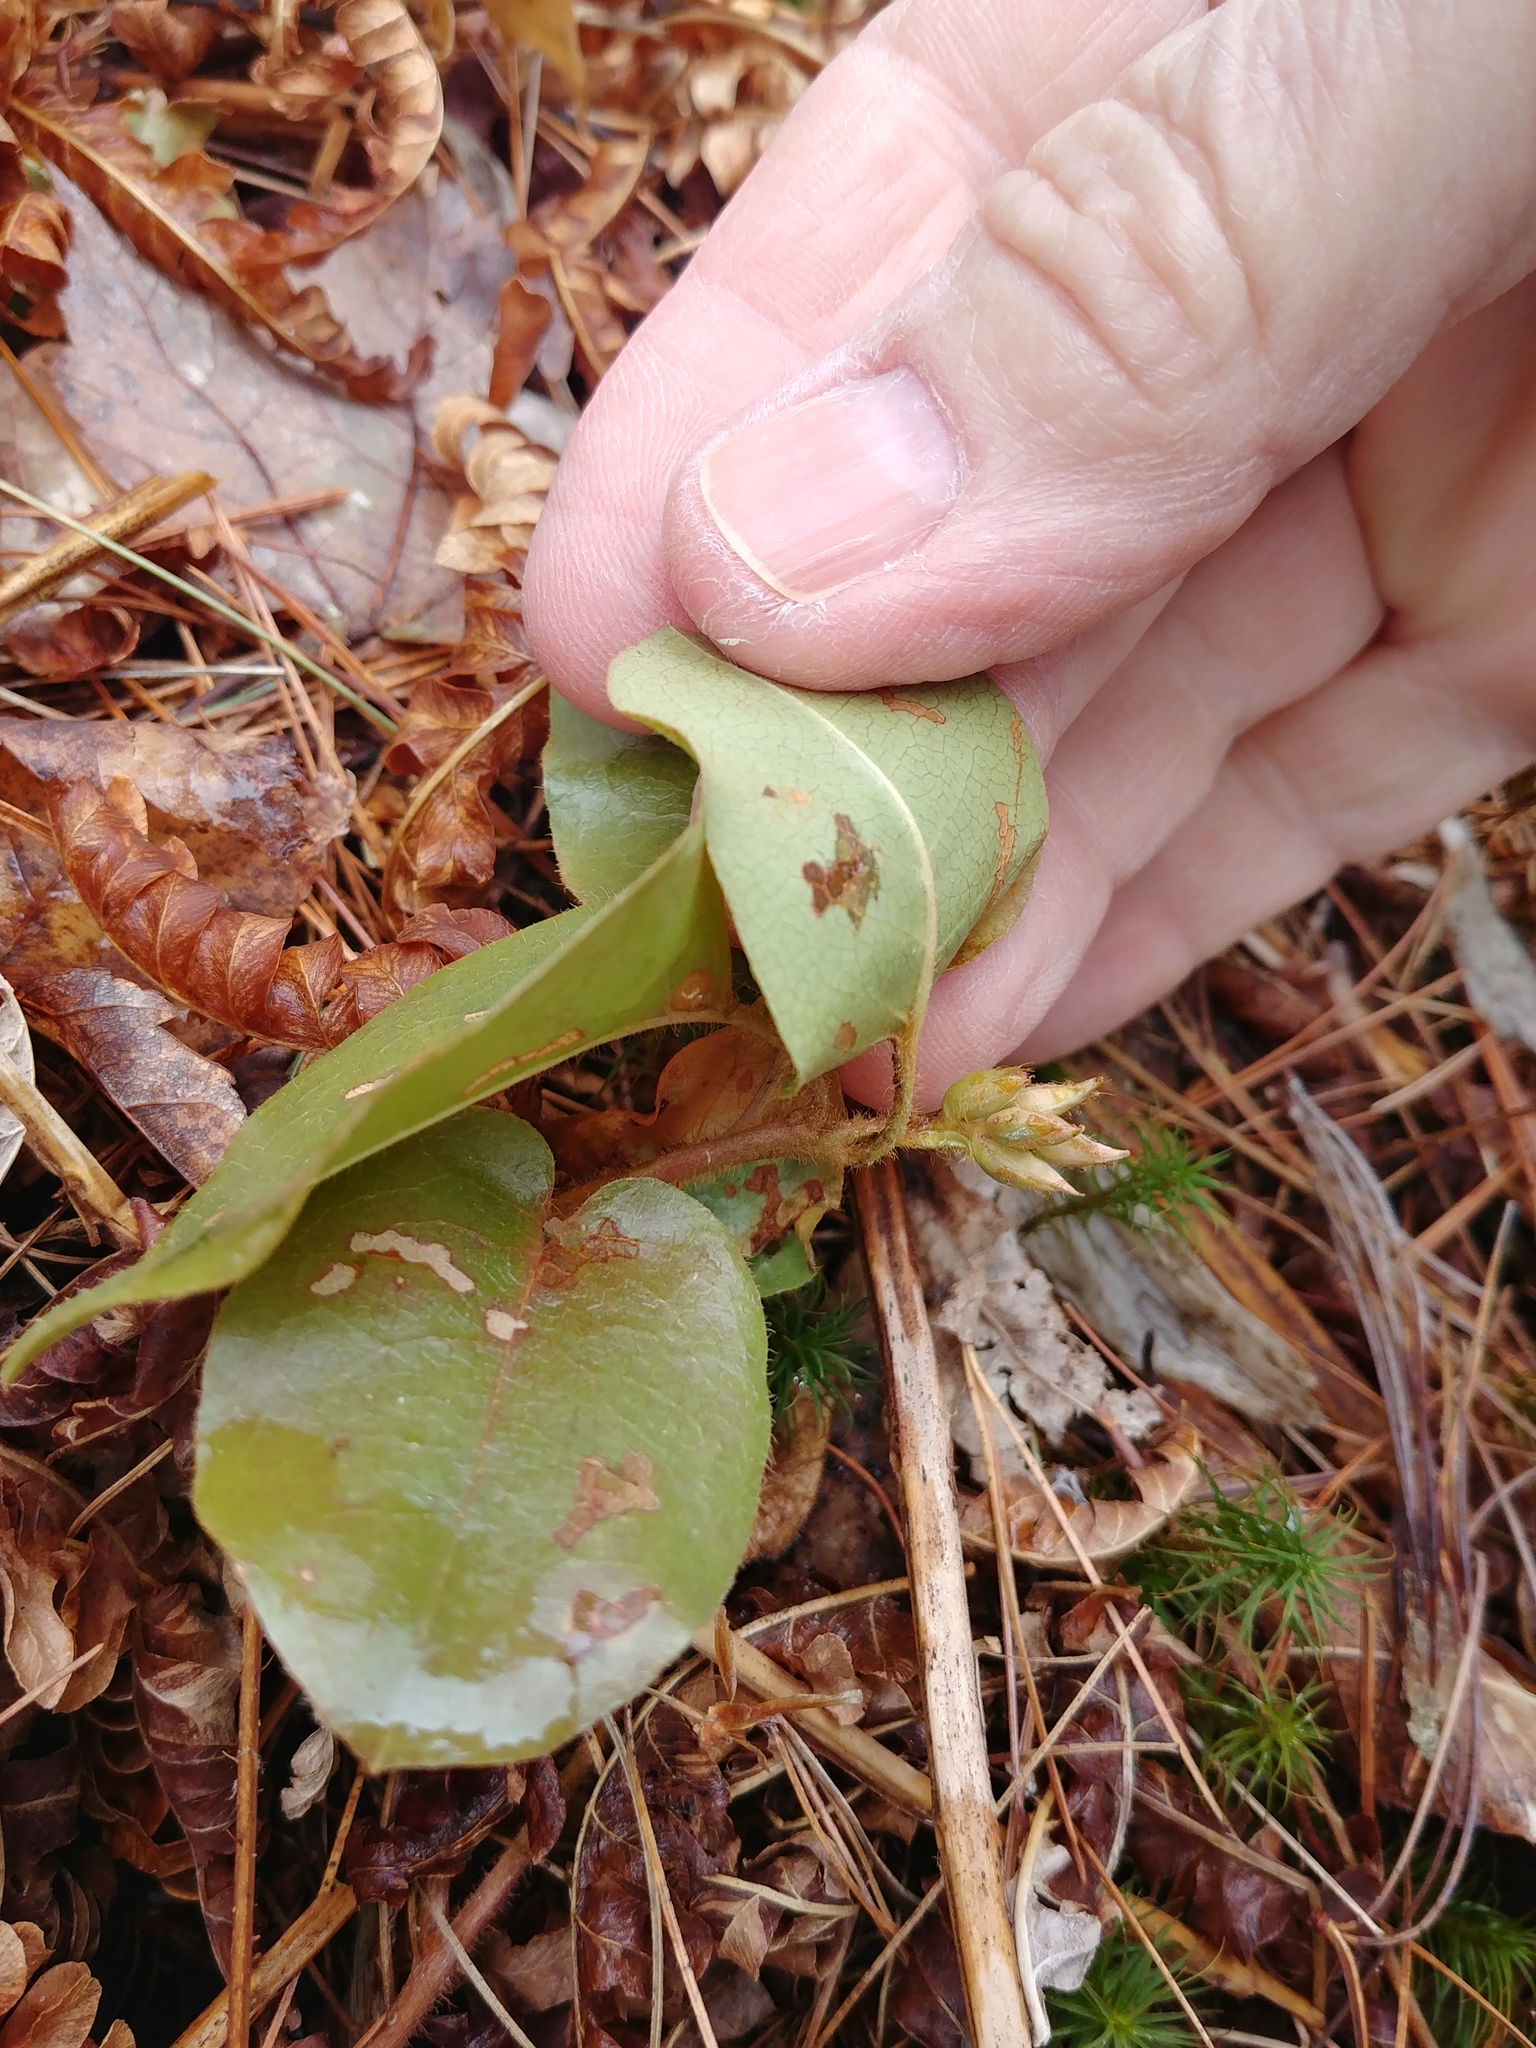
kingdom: Plantae
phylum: Tracheophyta
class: Magnoliopsida
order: Ericales
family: Ericaceae
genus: Epigaea
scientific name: Epigaea repens
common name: Gravelroot
